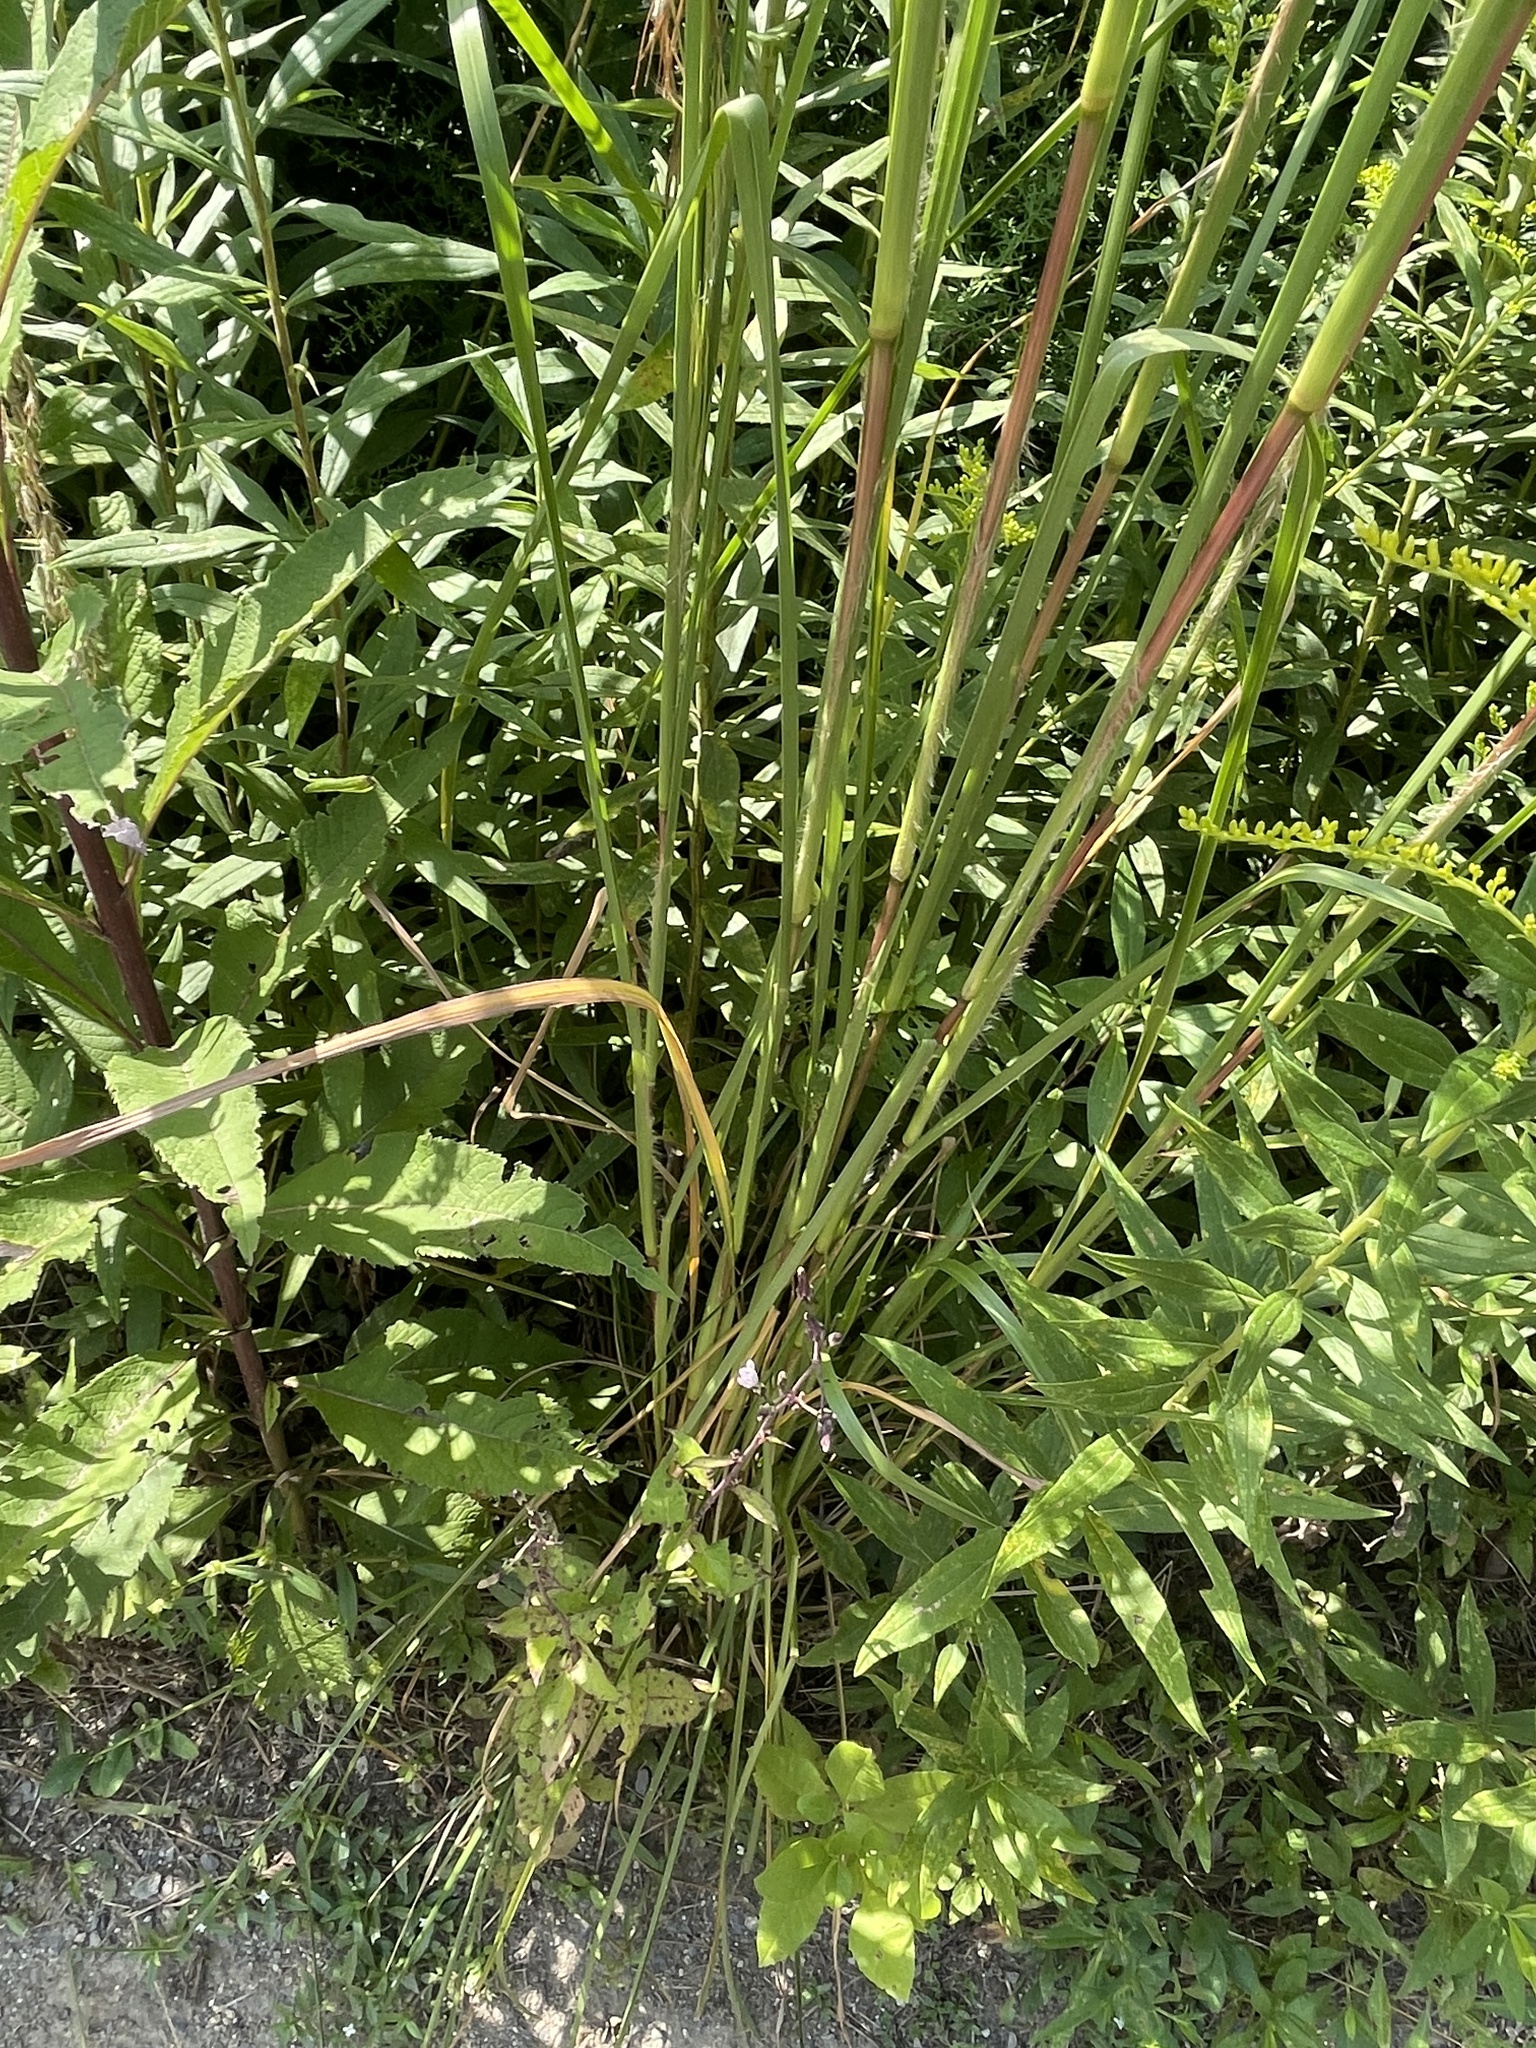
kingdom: Plantae
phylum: Tracheophyta
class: Liliopsida
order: Poales
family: Poaceae
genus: Andropogon
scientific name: Andropogon glomeratus
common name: Bushy beard grass
